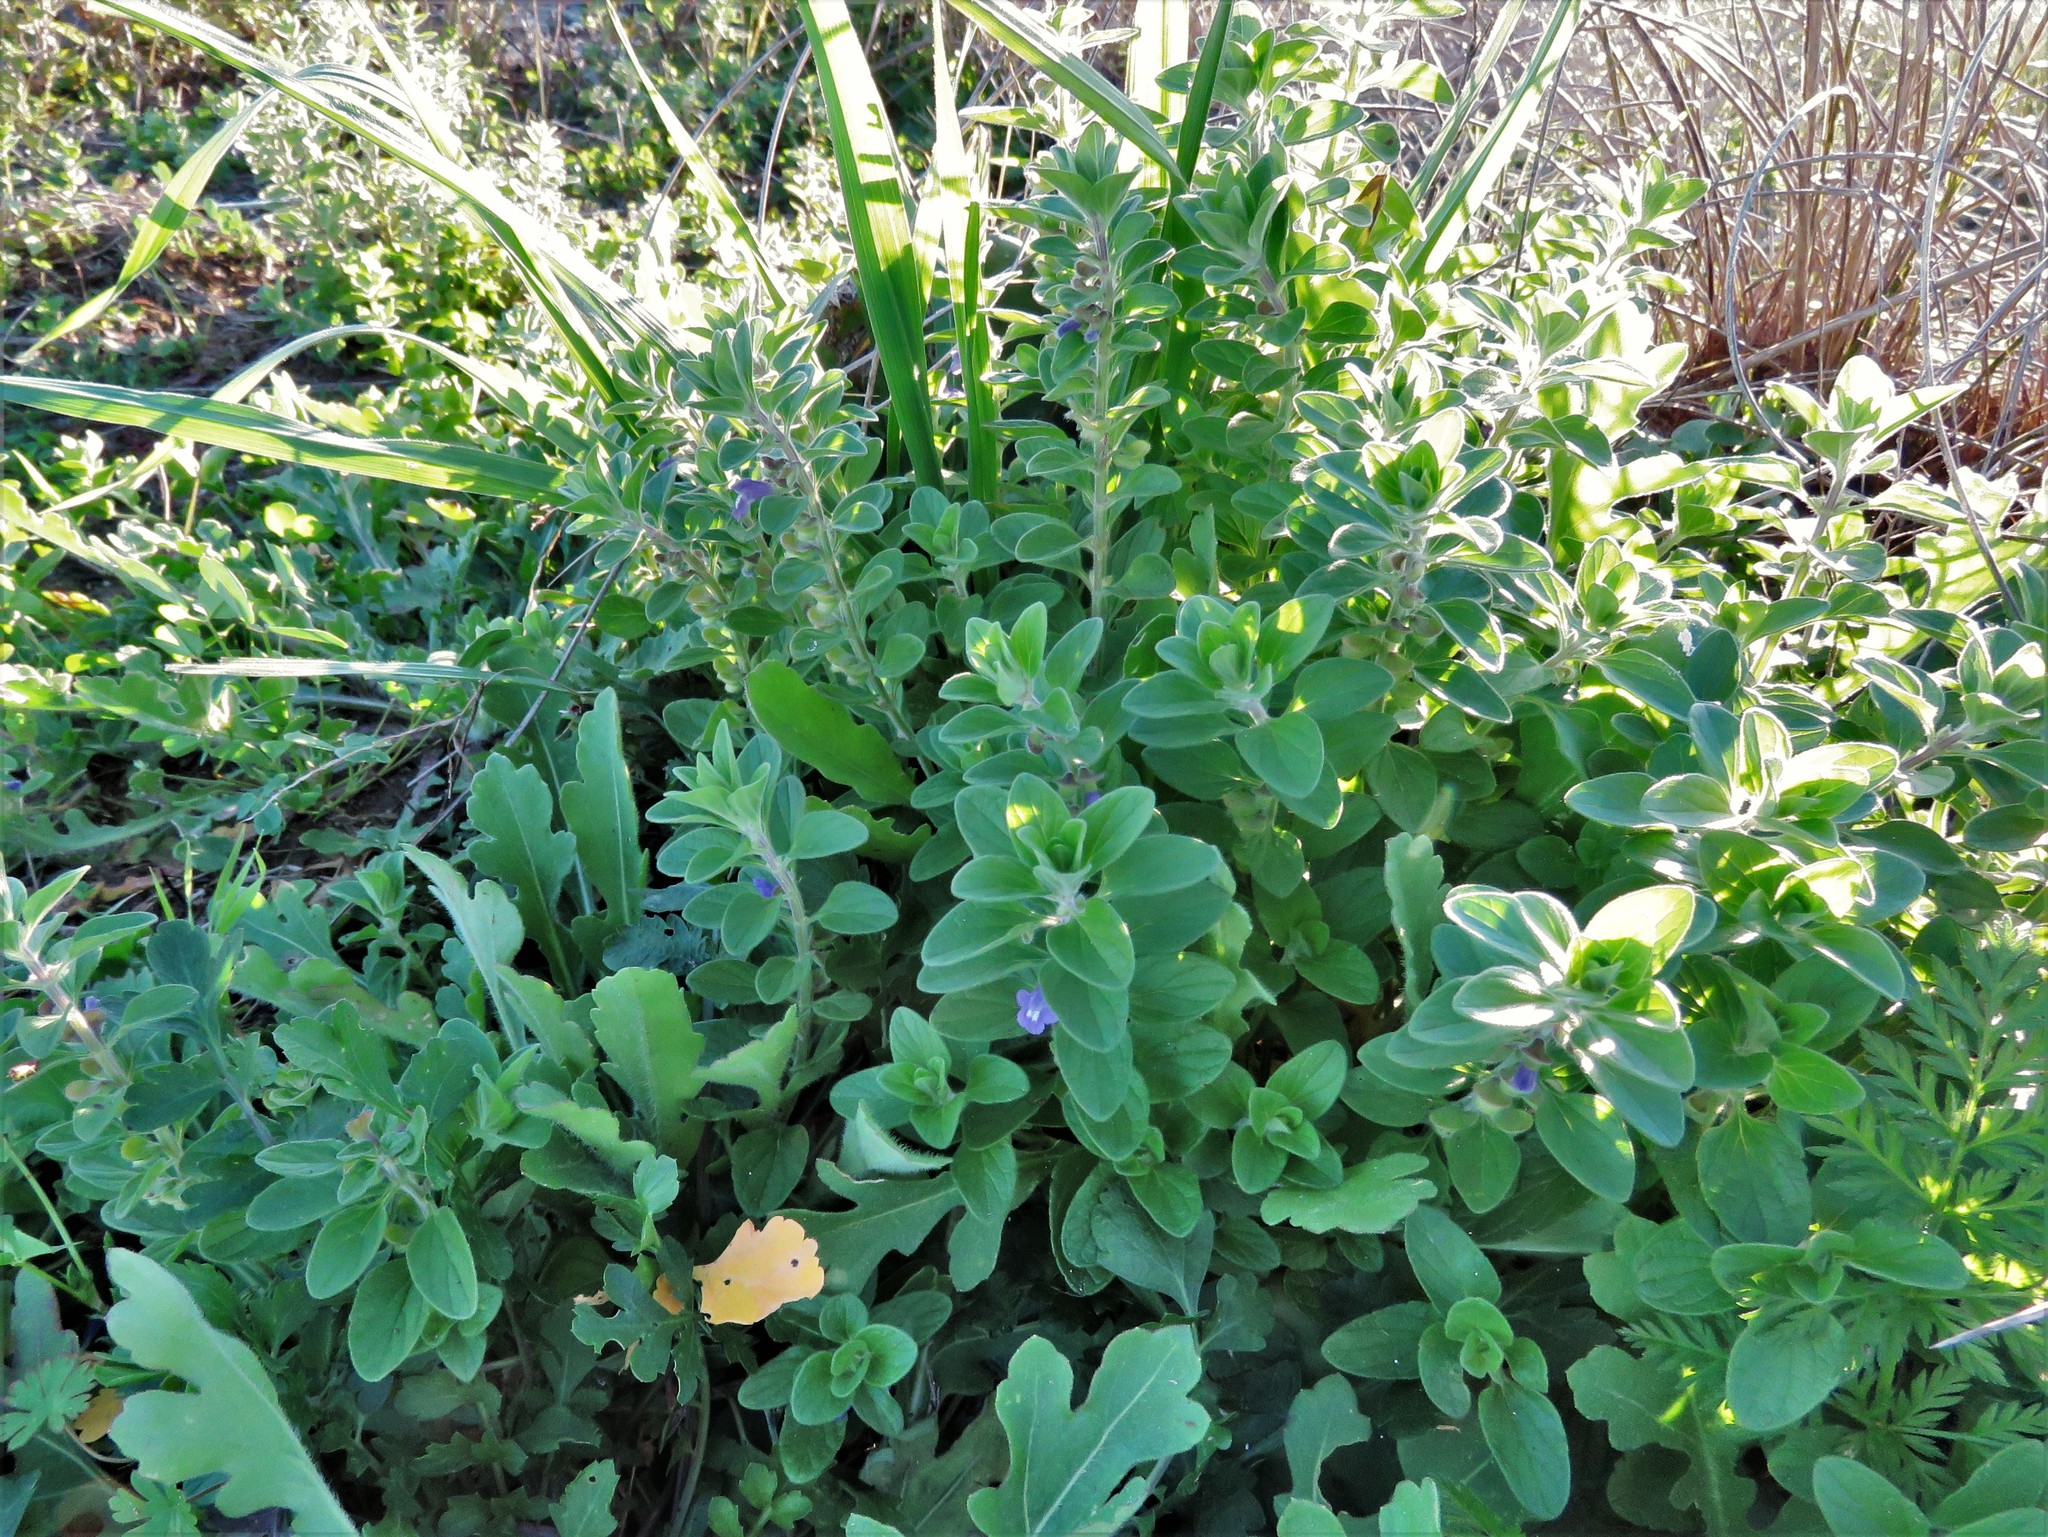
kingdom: Plantae
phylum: Tracheophyta
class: Magnoliopsida
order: Lamiales
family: Lamiaceae
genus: Scutellaria
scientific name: Scutellaria drummondii
